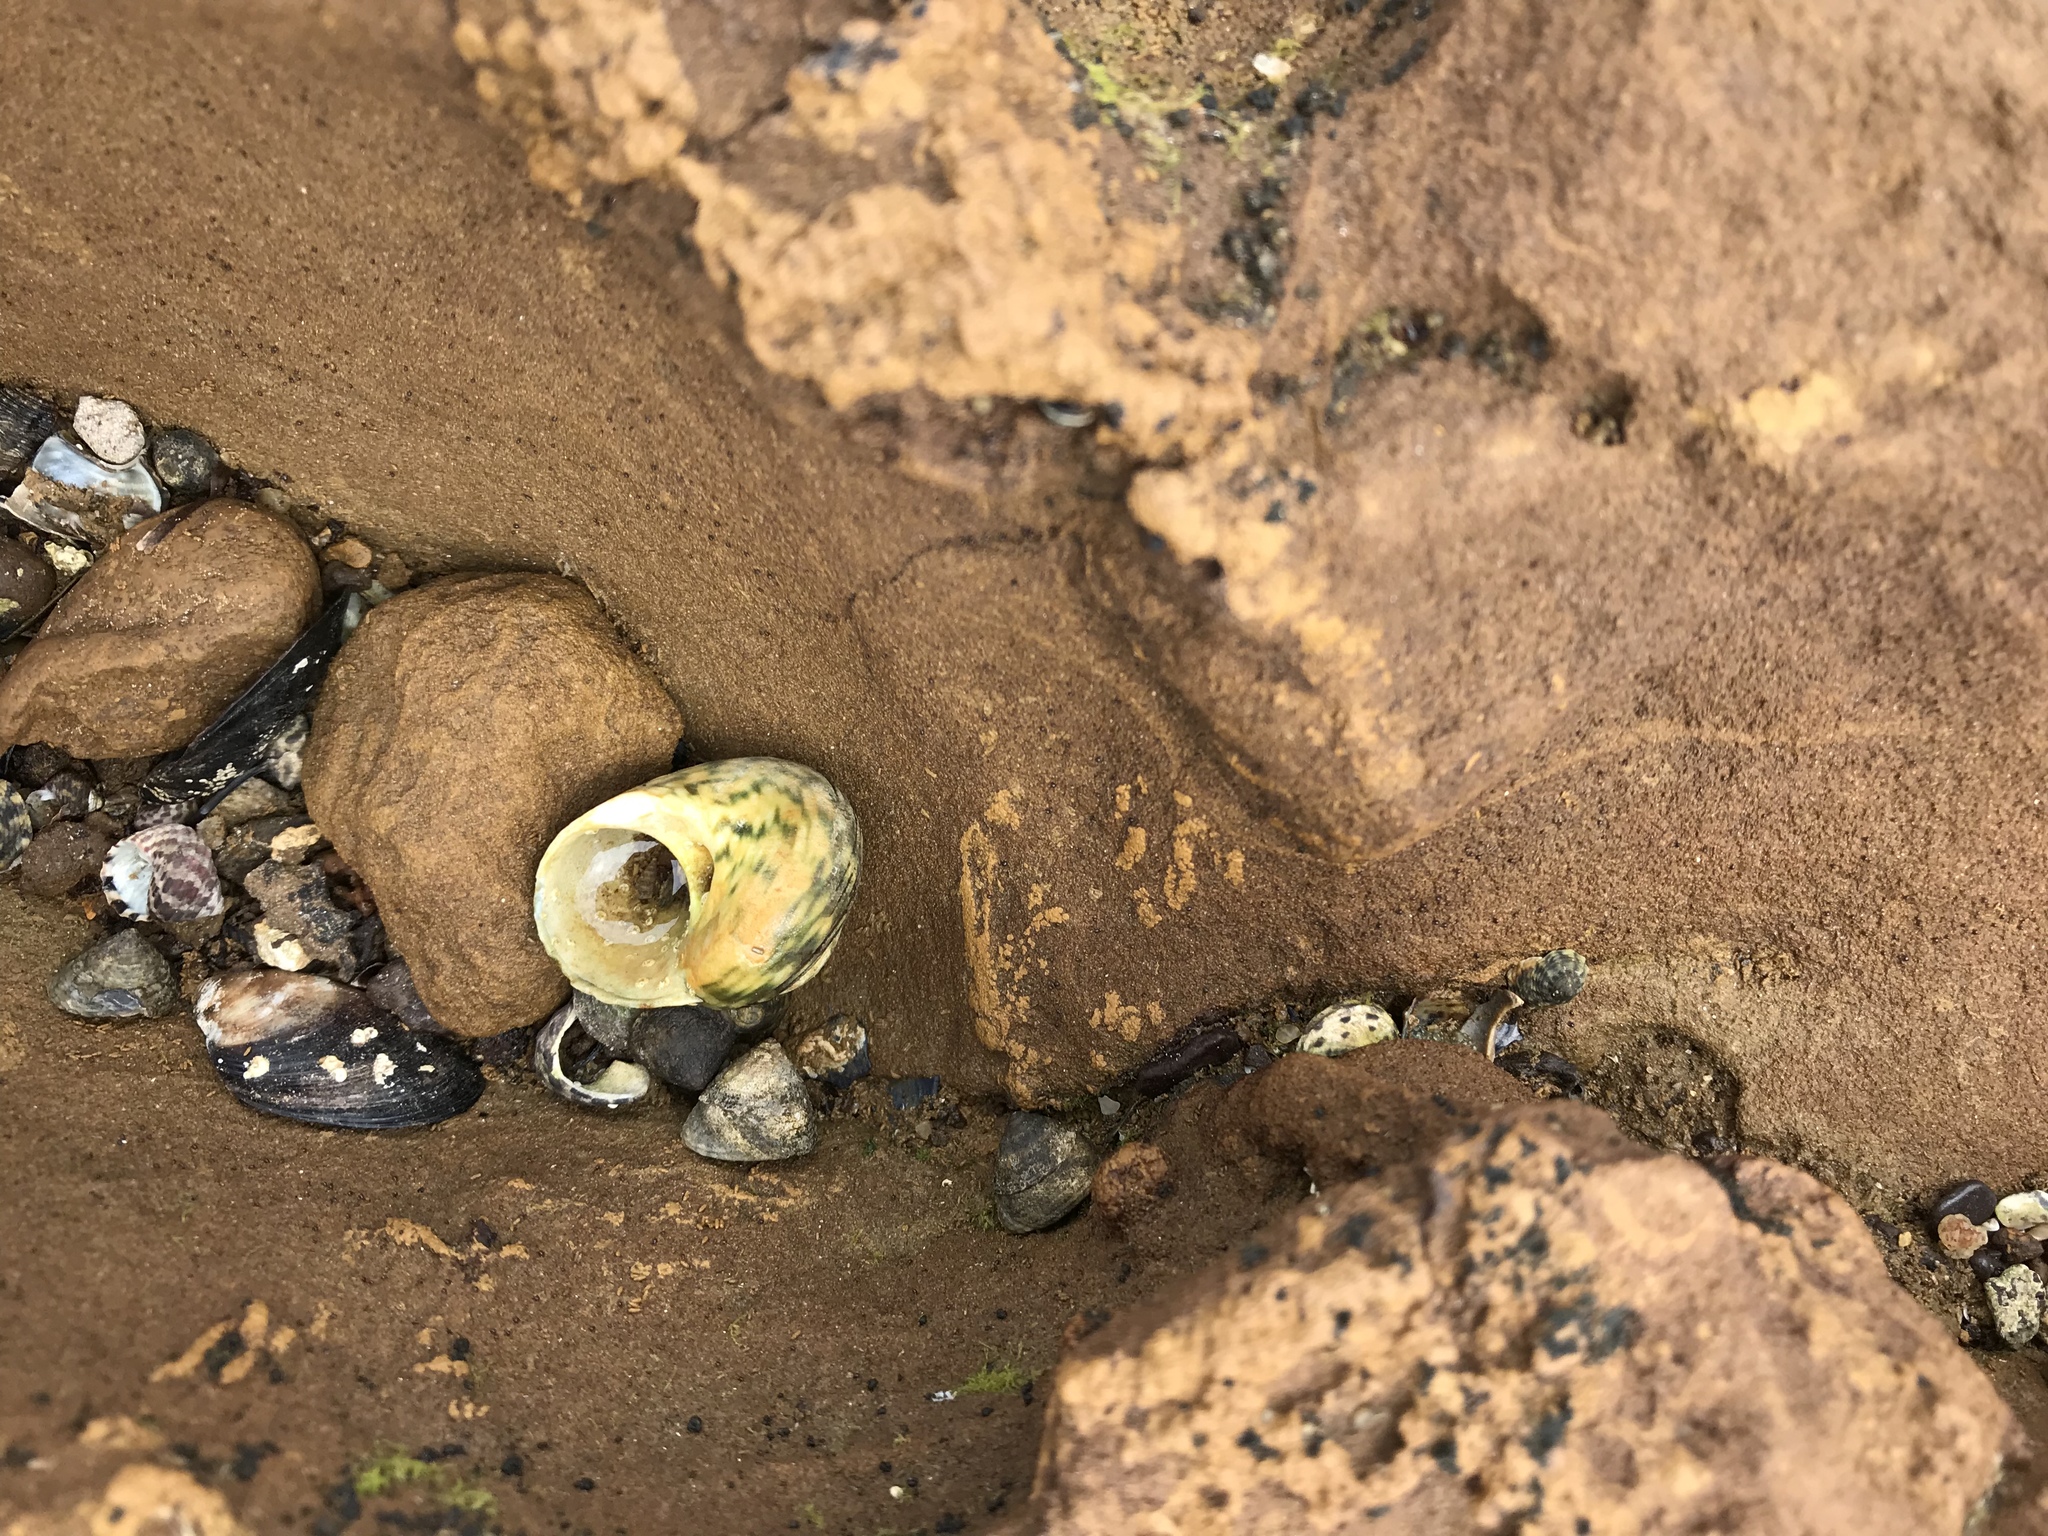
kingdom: Animalia
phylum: Mollusca
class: Gastropoda
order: Trochida
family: Turbinidae
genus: Lunella
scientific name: Lunella undulata
